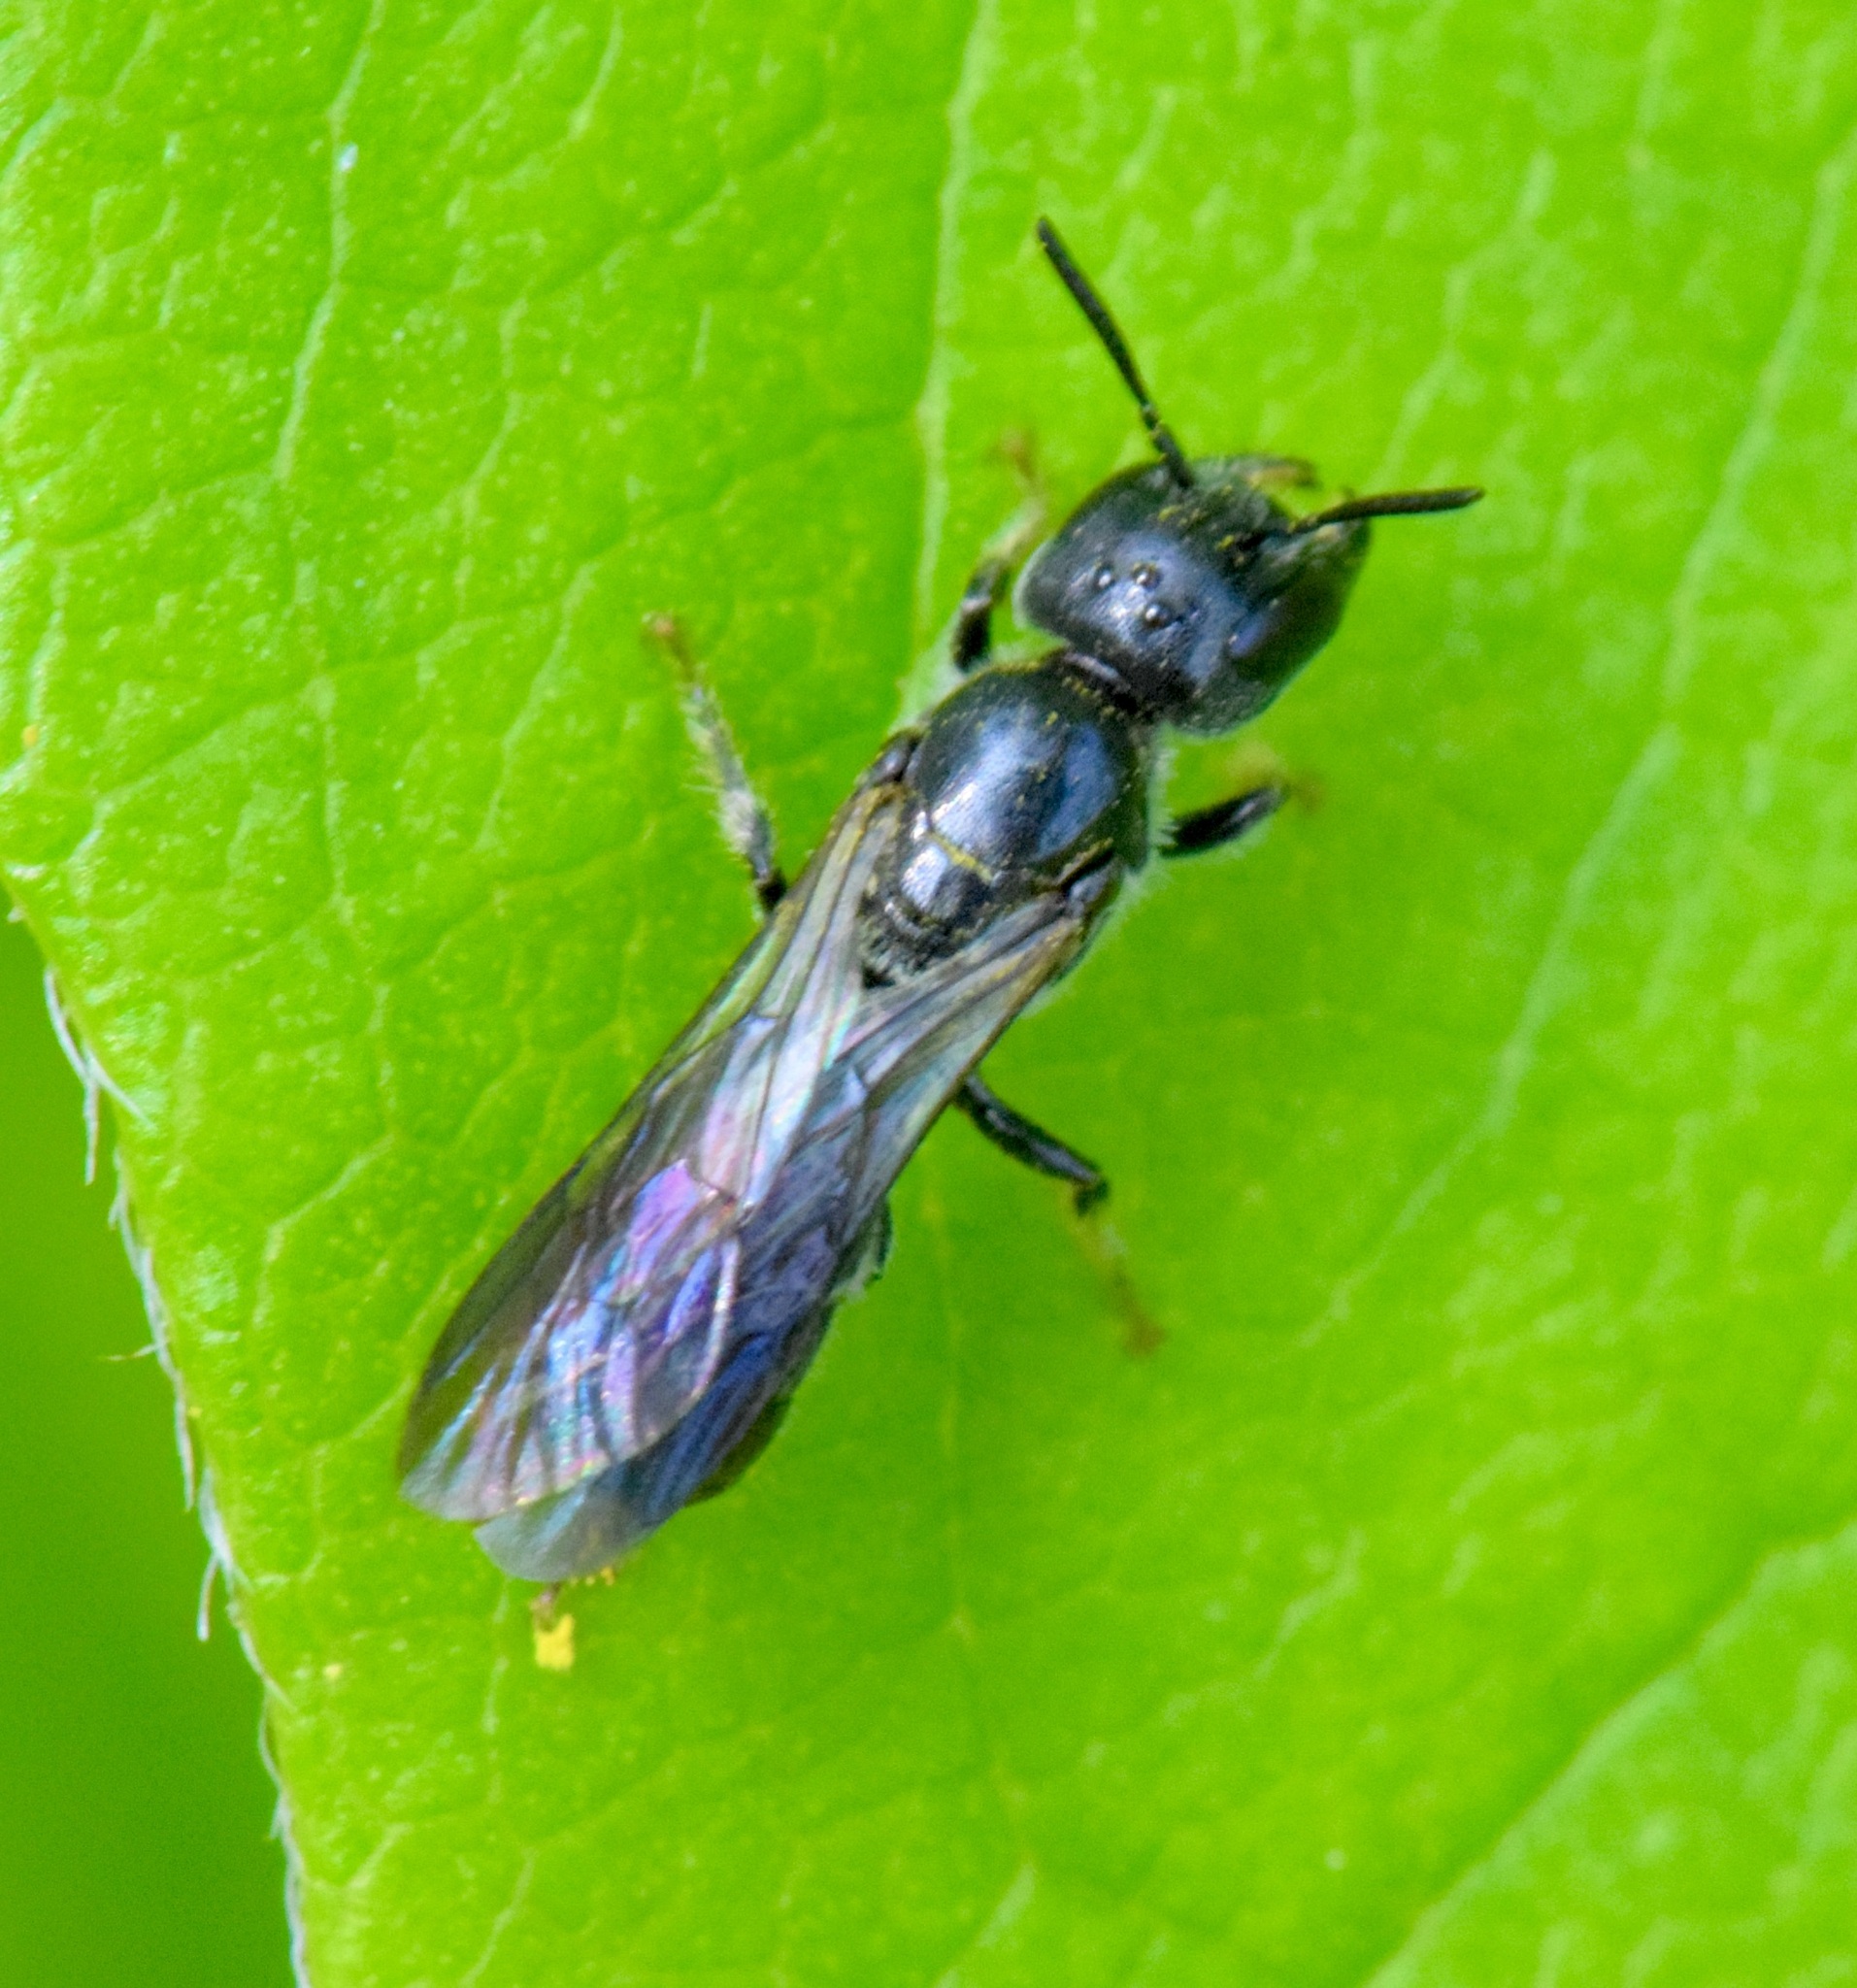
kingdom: Animalia
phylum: Arthropoda
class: Insecta
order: Hymenoptera
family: Megachilidae
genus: Chelostoma
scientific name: Chelostoma philadelphi
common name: Mock-orange scissor bee
